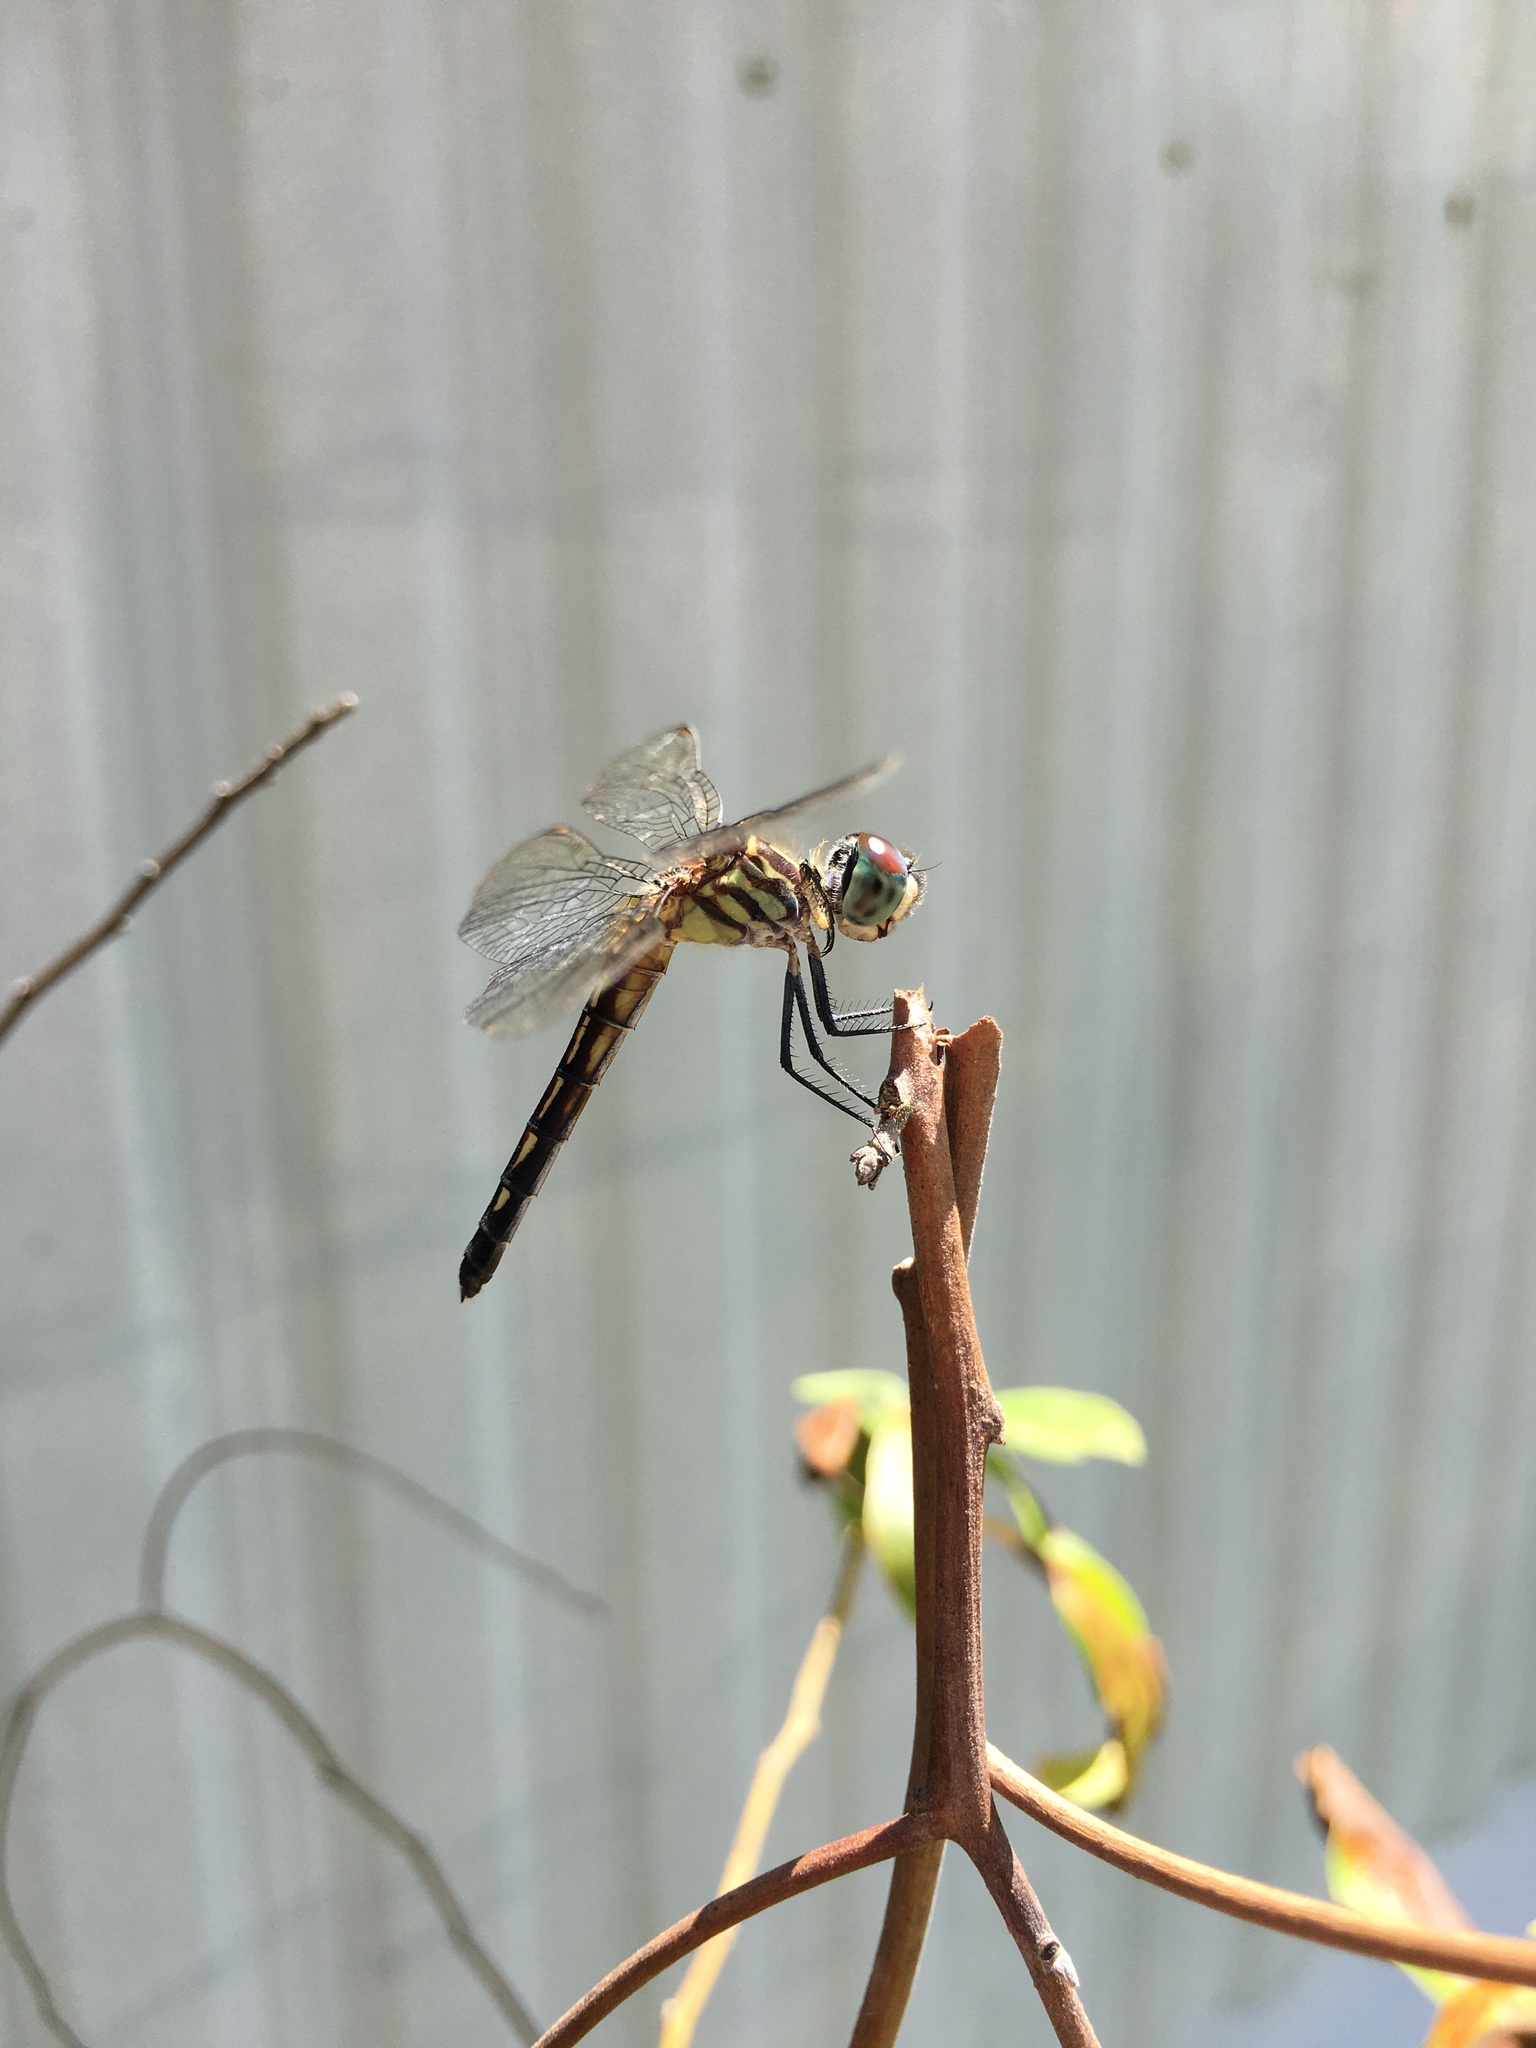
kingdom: Animalia
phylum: Arthropoda
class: Insecta
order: Odonata
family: Libellulidae
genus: Pachydiplax
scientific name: Pachydiplax longipennis
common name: Blue dasher
